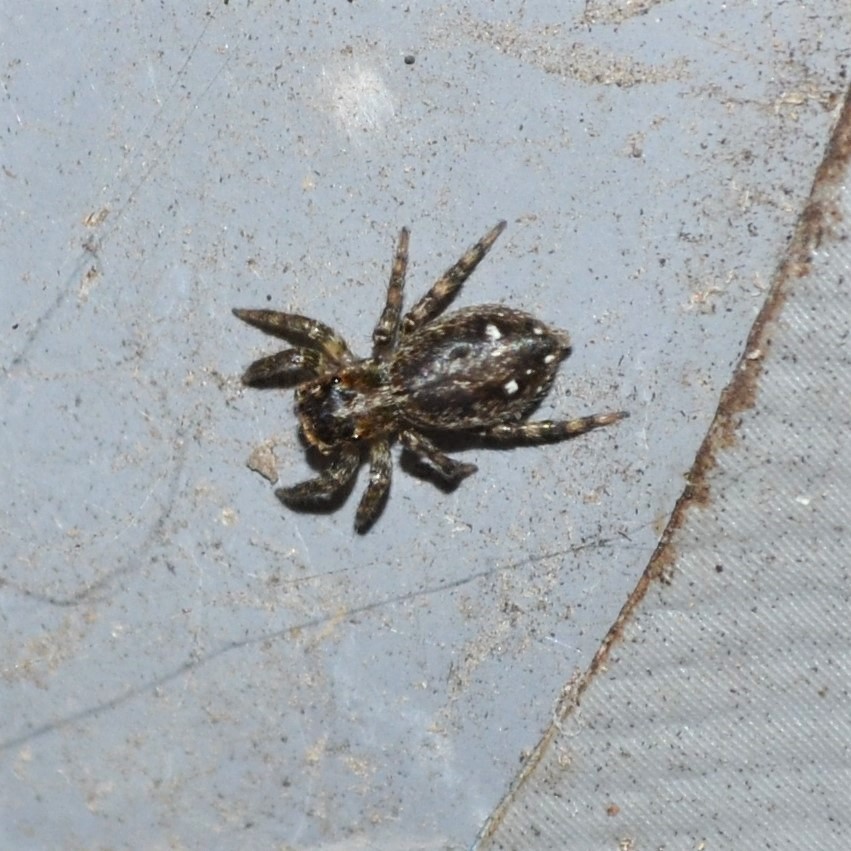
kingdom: Animalia
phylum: Arthropoda
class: Arachnida
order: Araneae
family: Salticidae
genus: Plexippus
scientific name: Plexippus paykulli
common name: Pantropical jumper
